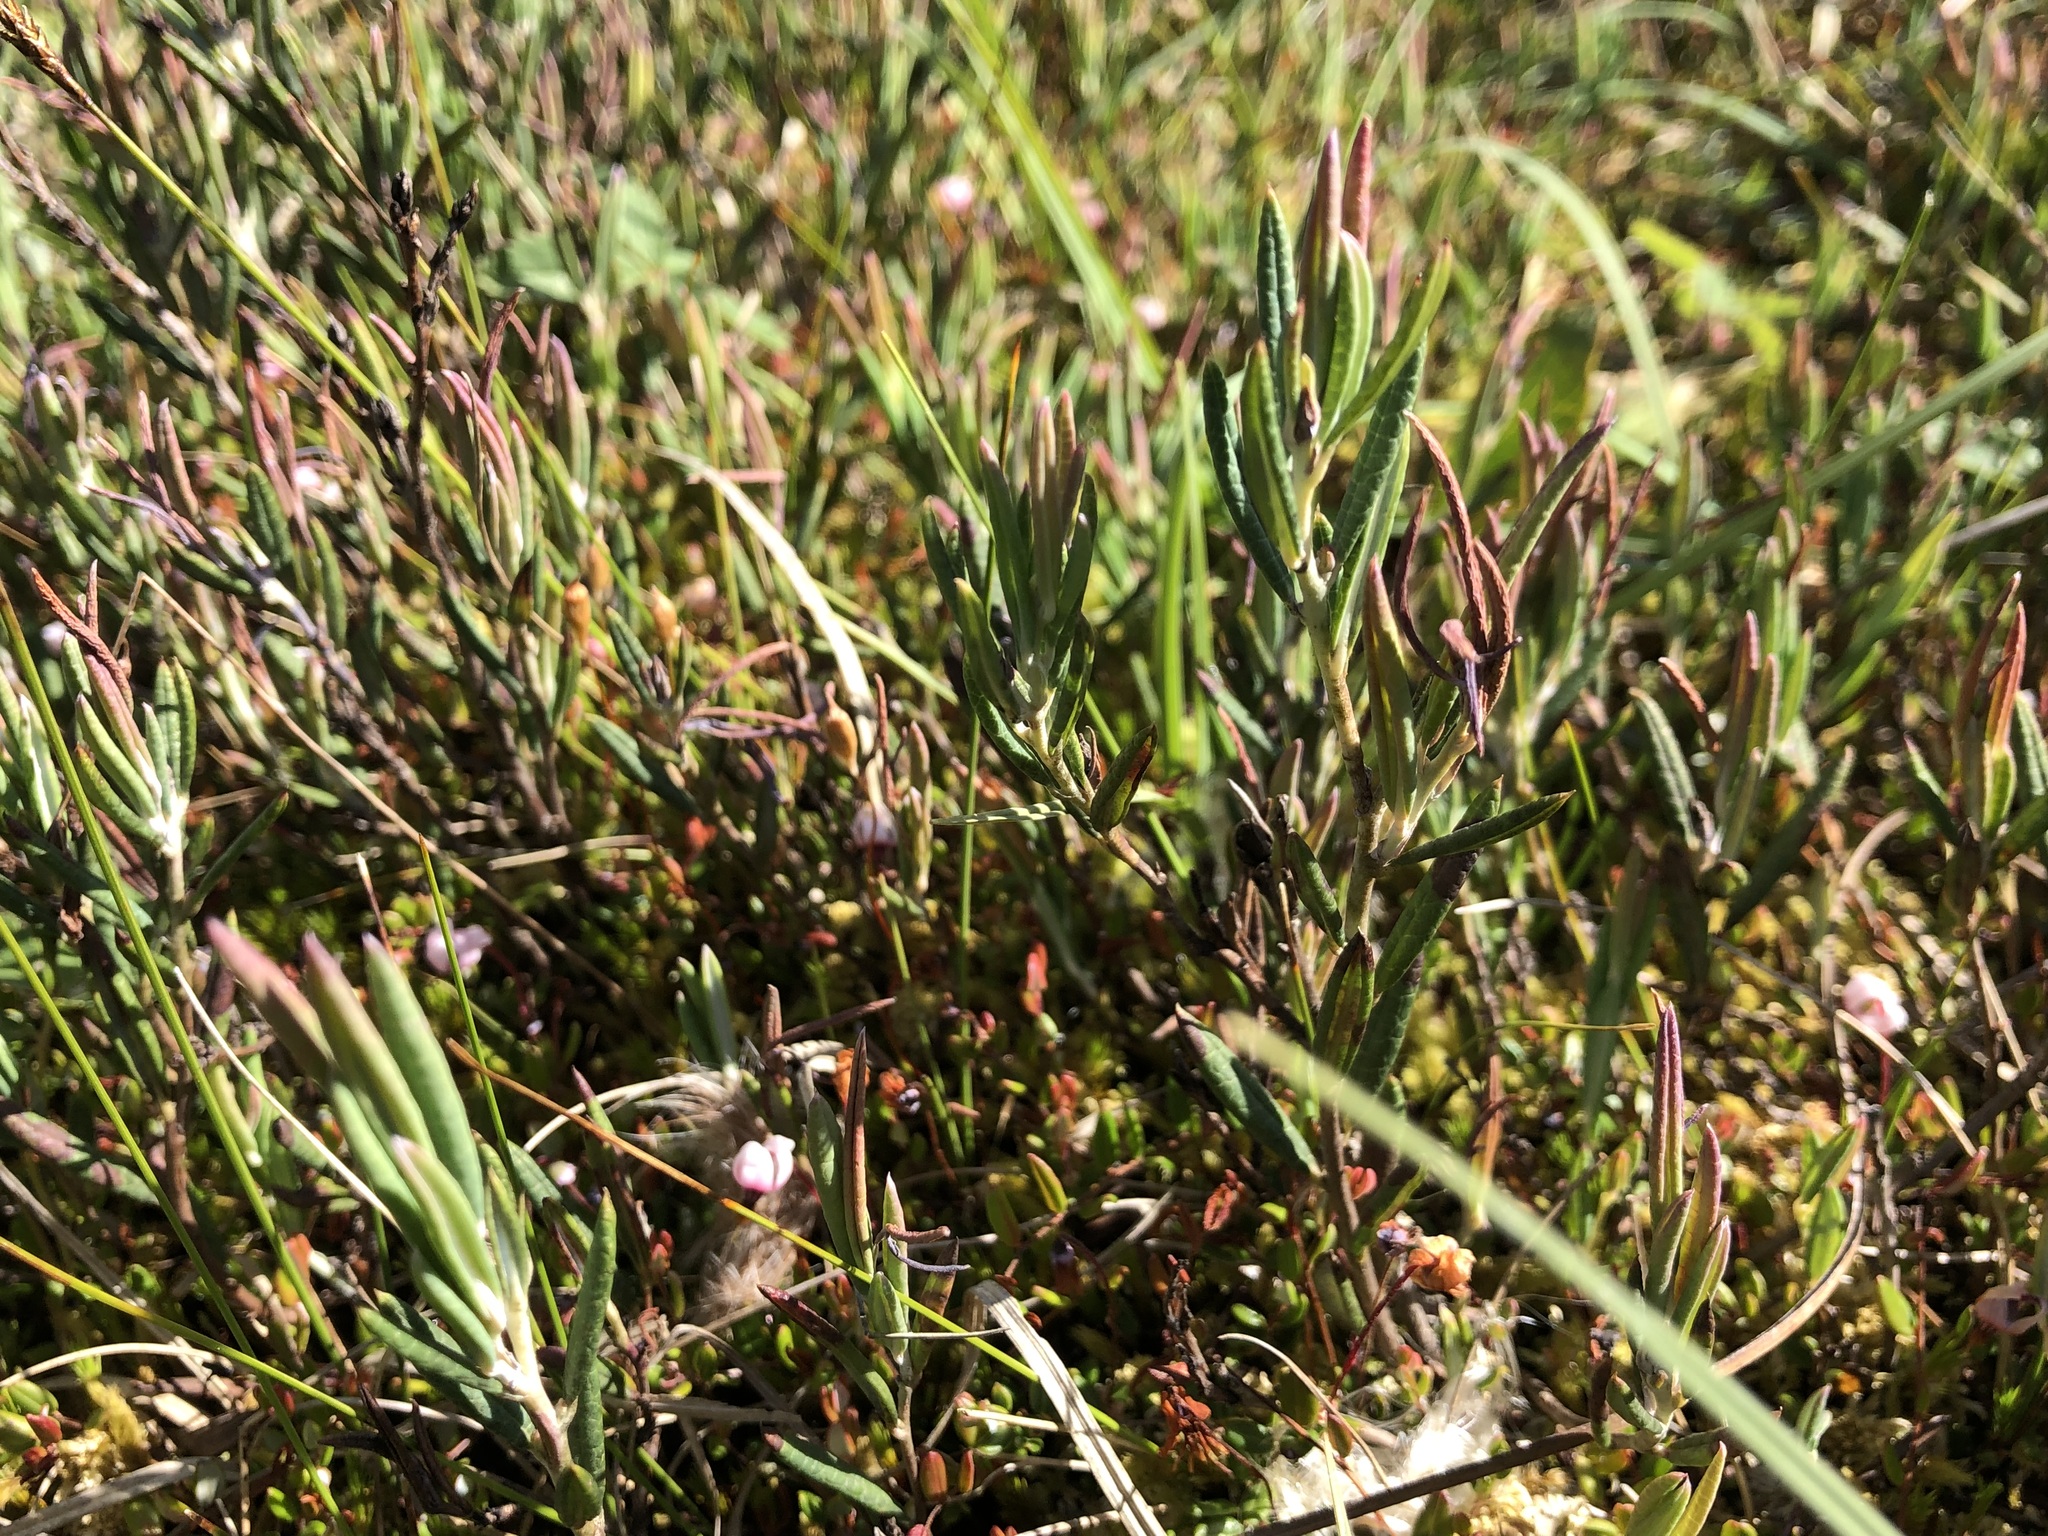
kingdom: Plantae
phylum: Tracheophyta
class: Magnoliopsida
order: Ericales
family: Ericaceae
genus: Andromeda
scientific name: Andromeda polifolia
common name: Bog-rosemary
